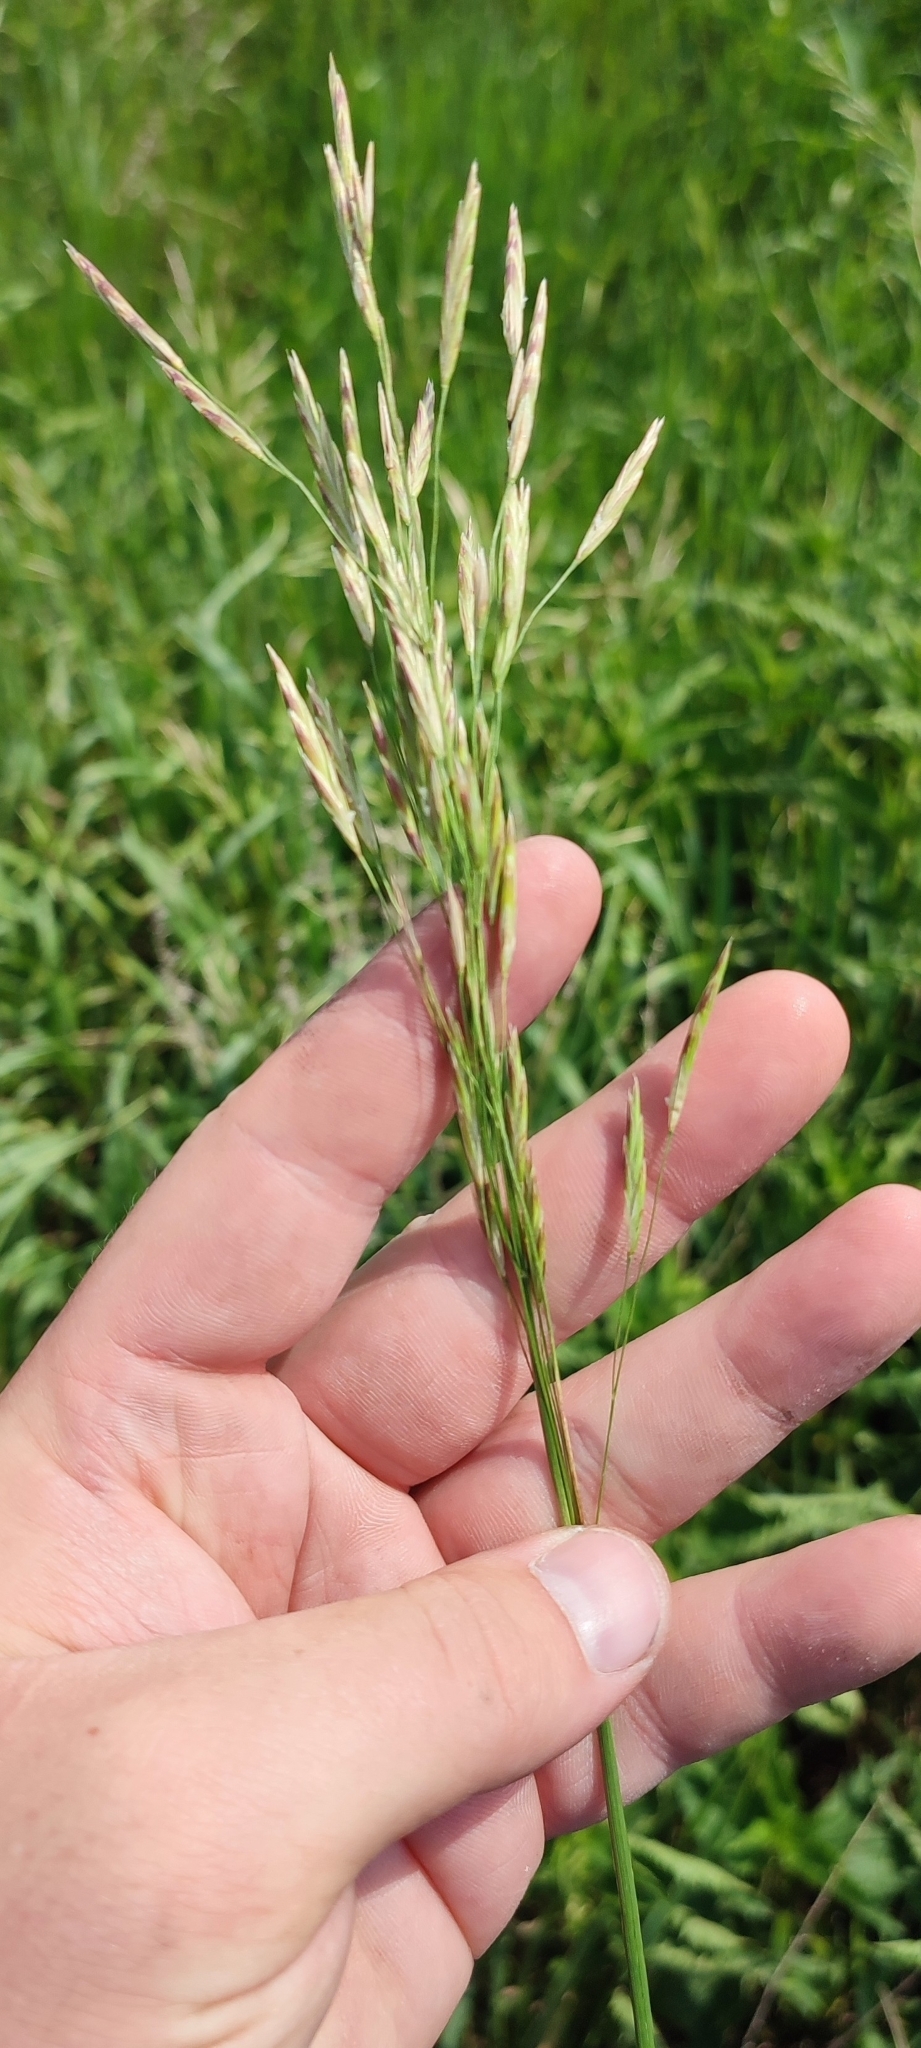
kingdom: Plantae
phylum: Tracheophyta
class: Liliopsida
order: Poales
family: Poaceae
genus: Bromus
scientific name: Bromus inermis
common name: Smooth brome
